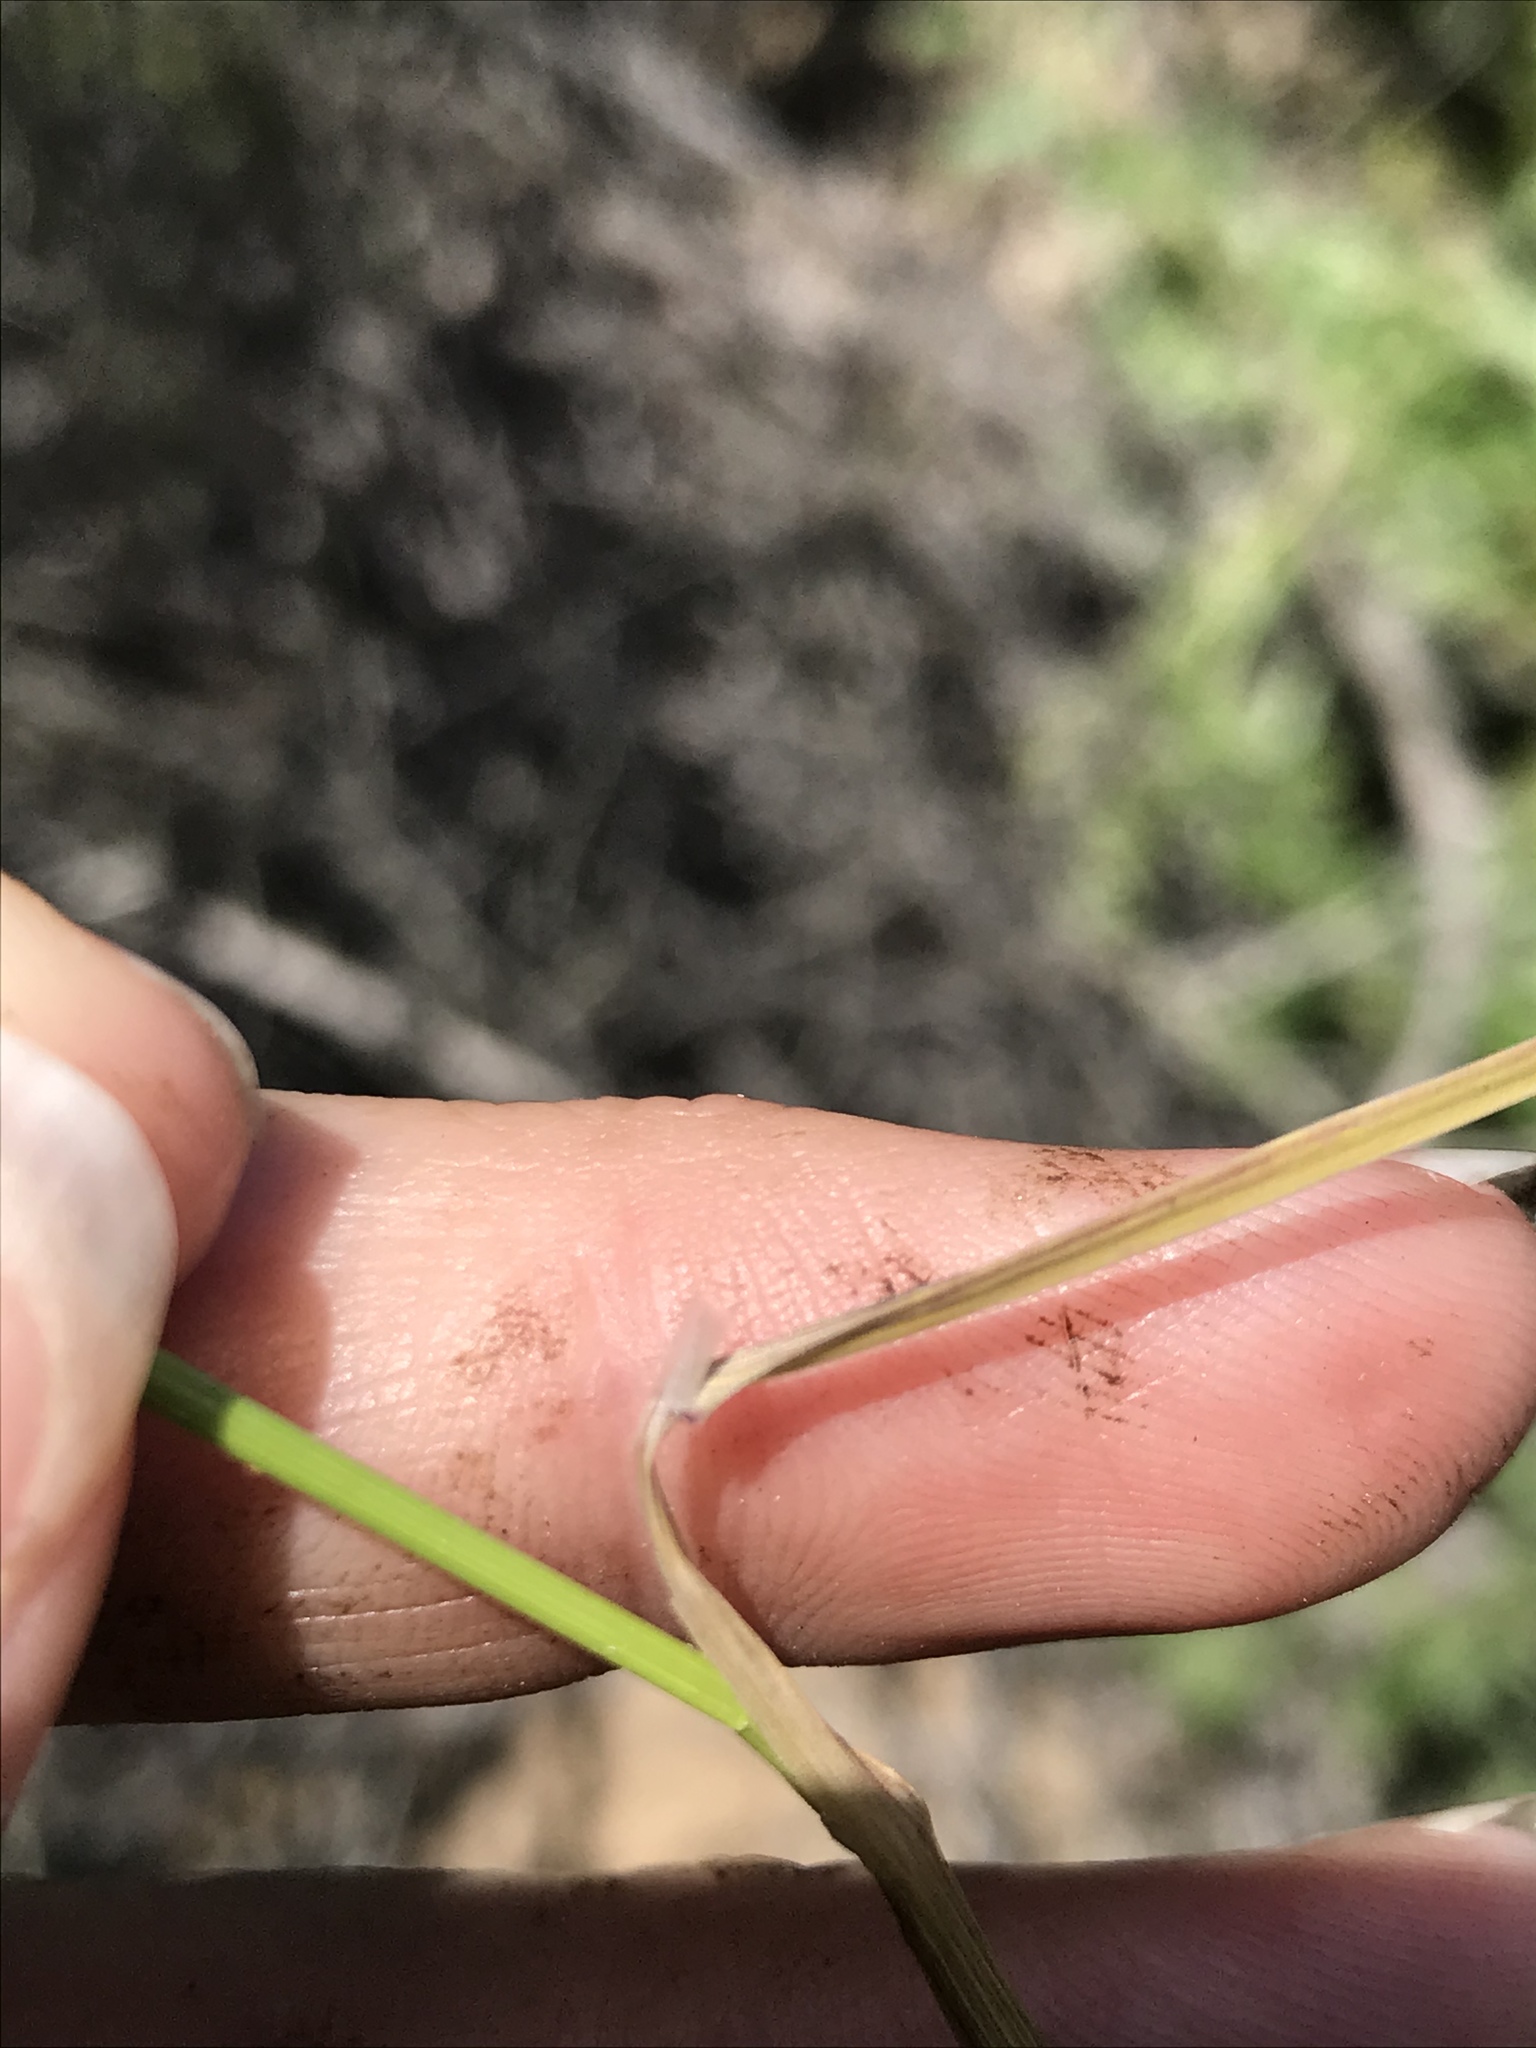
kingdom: Plantae
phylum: Tracheophyta
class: Liliopsida
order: Poales
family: Poaceae
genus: Melica
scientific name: Melica imperfecta
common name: California melic
